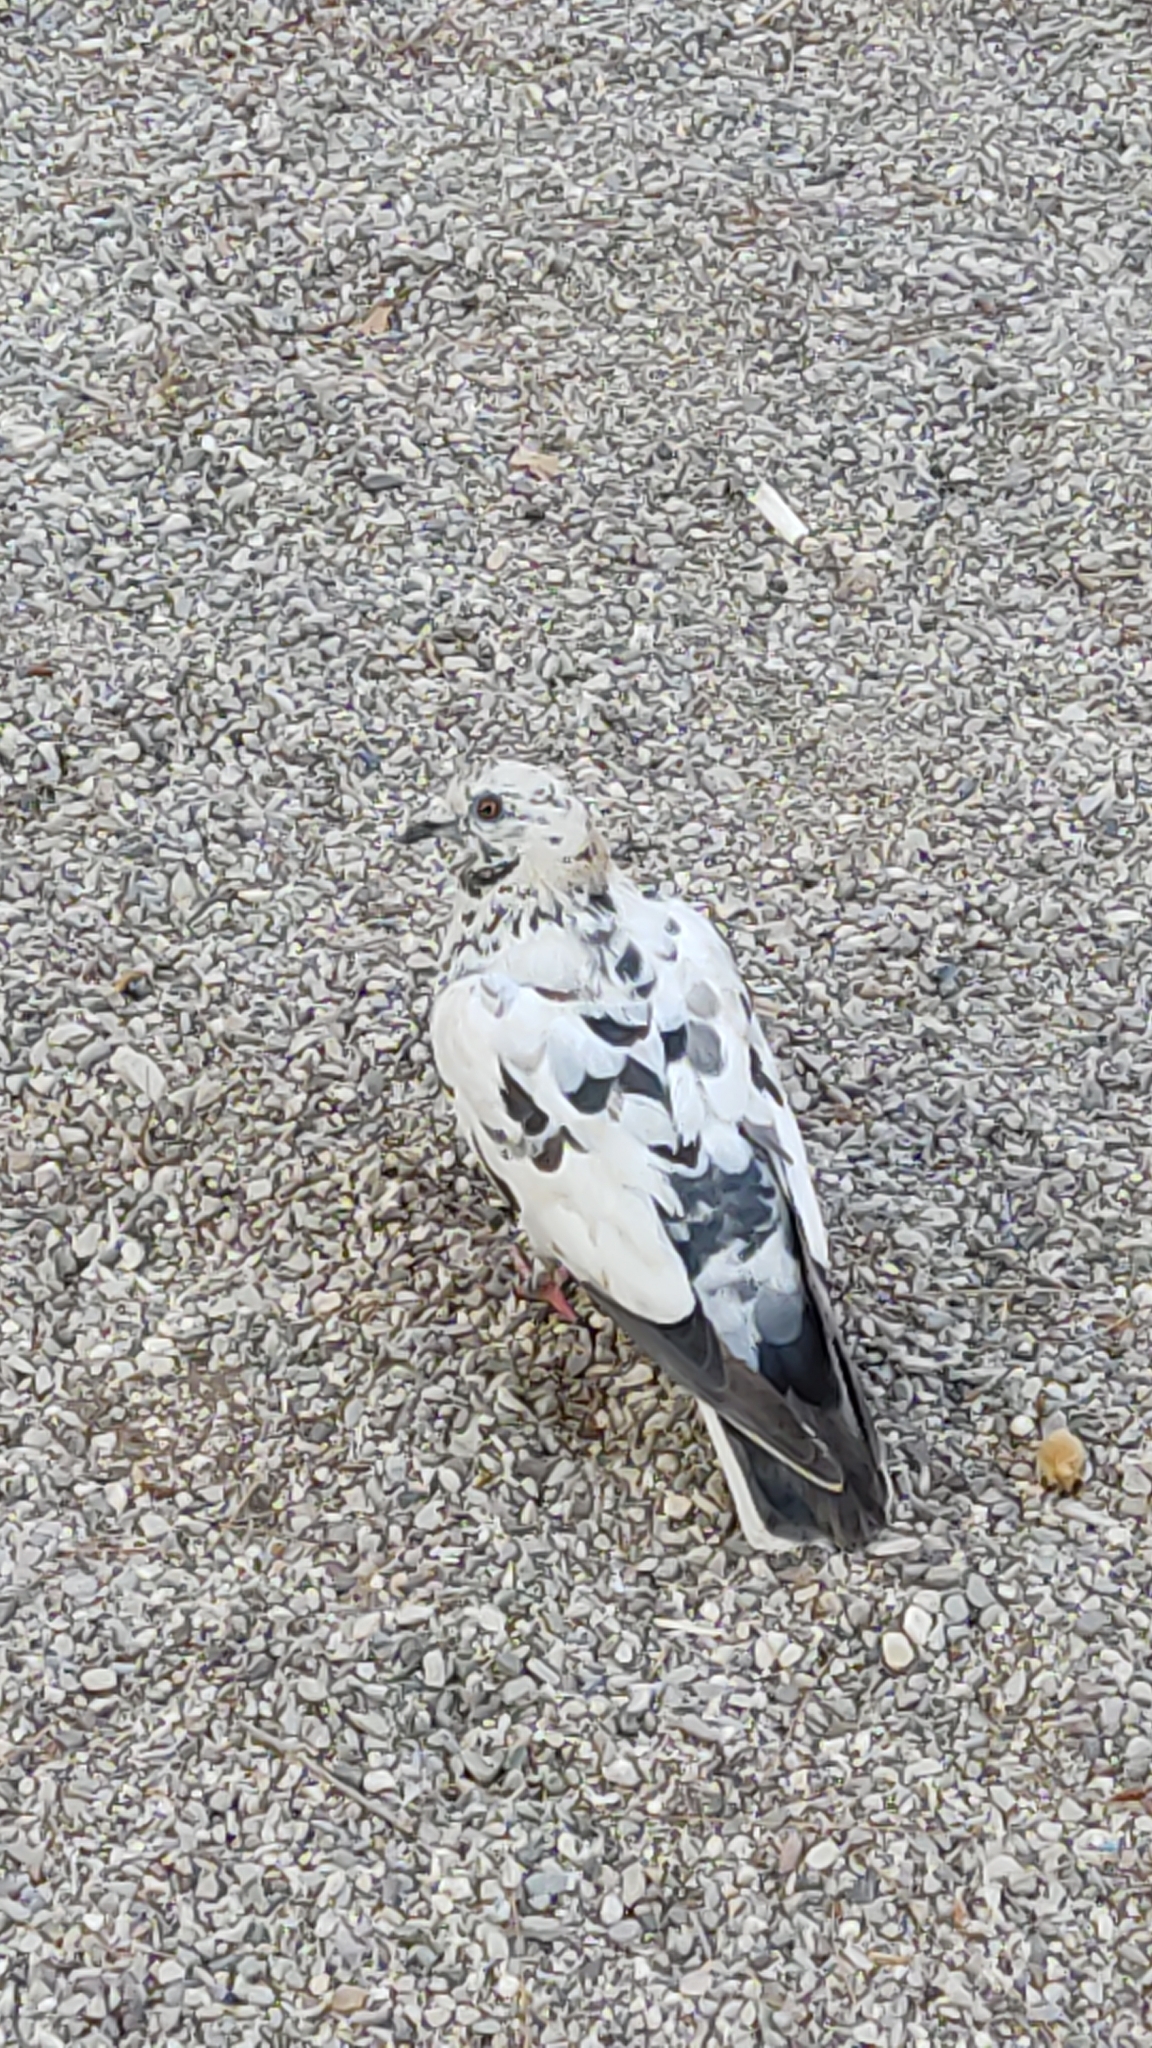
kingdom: Animalia
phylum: Chordata
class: Aves
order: Columbiformes
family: Columbidae
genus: Columba
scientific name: Columba livia
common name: Rock pigeon
